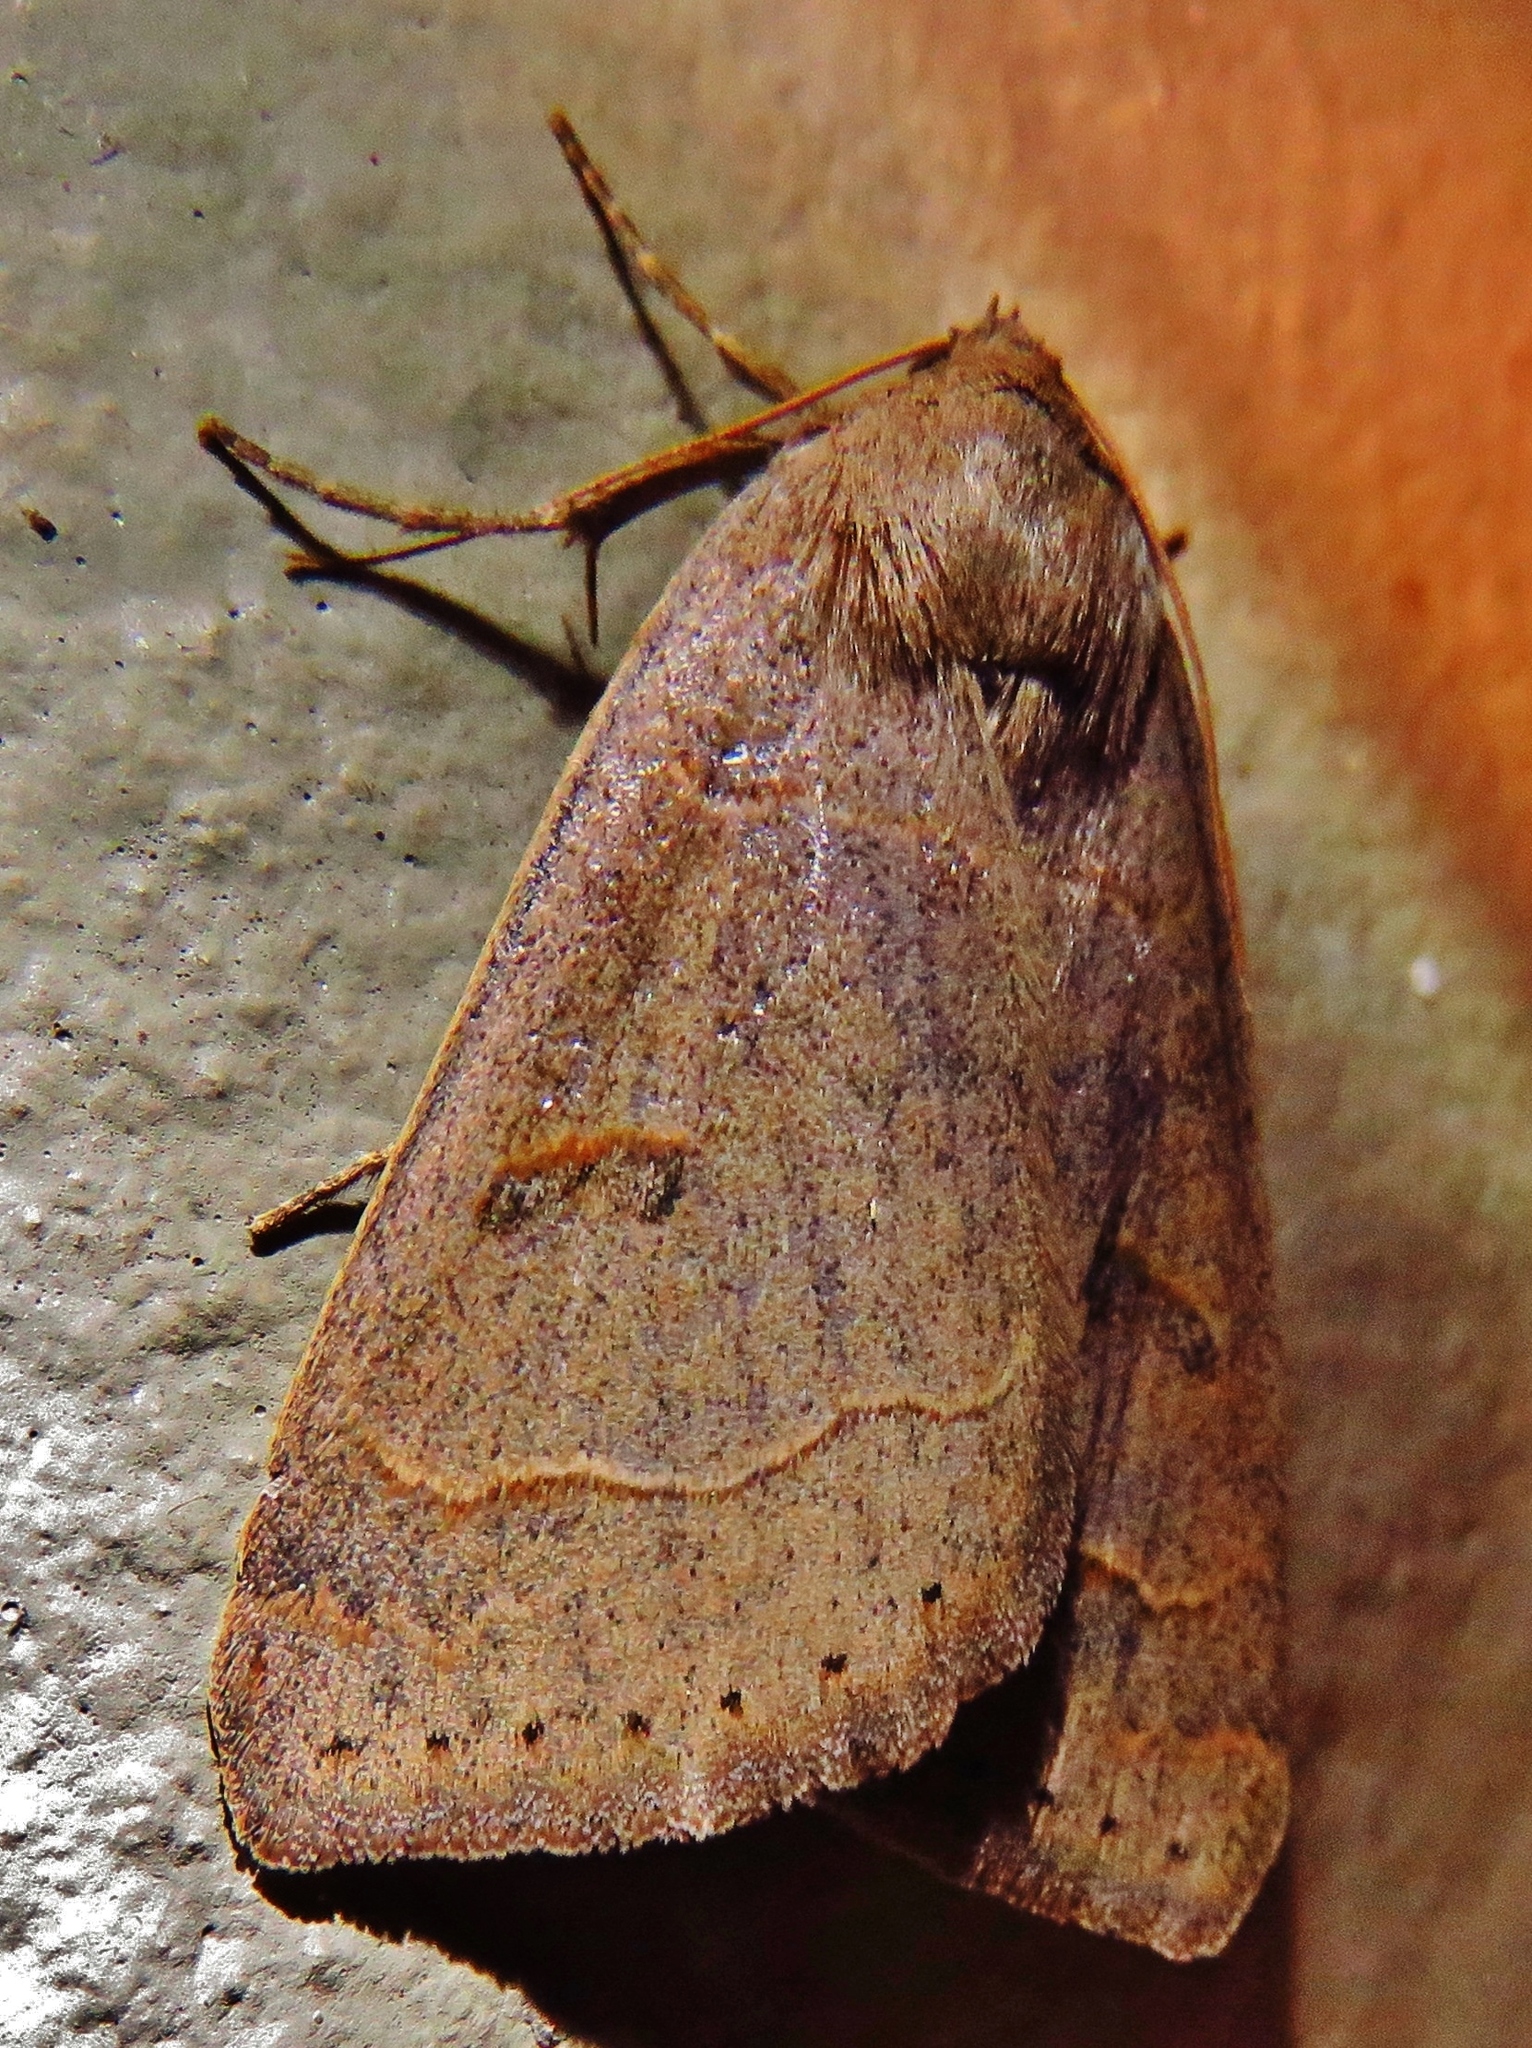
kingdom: Animalia
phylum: Arthropoda
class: Insecta
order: Lepidoptera
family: Erebidae
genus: Phoberia
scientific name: Phoberia atomaris
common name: Common oak moth
